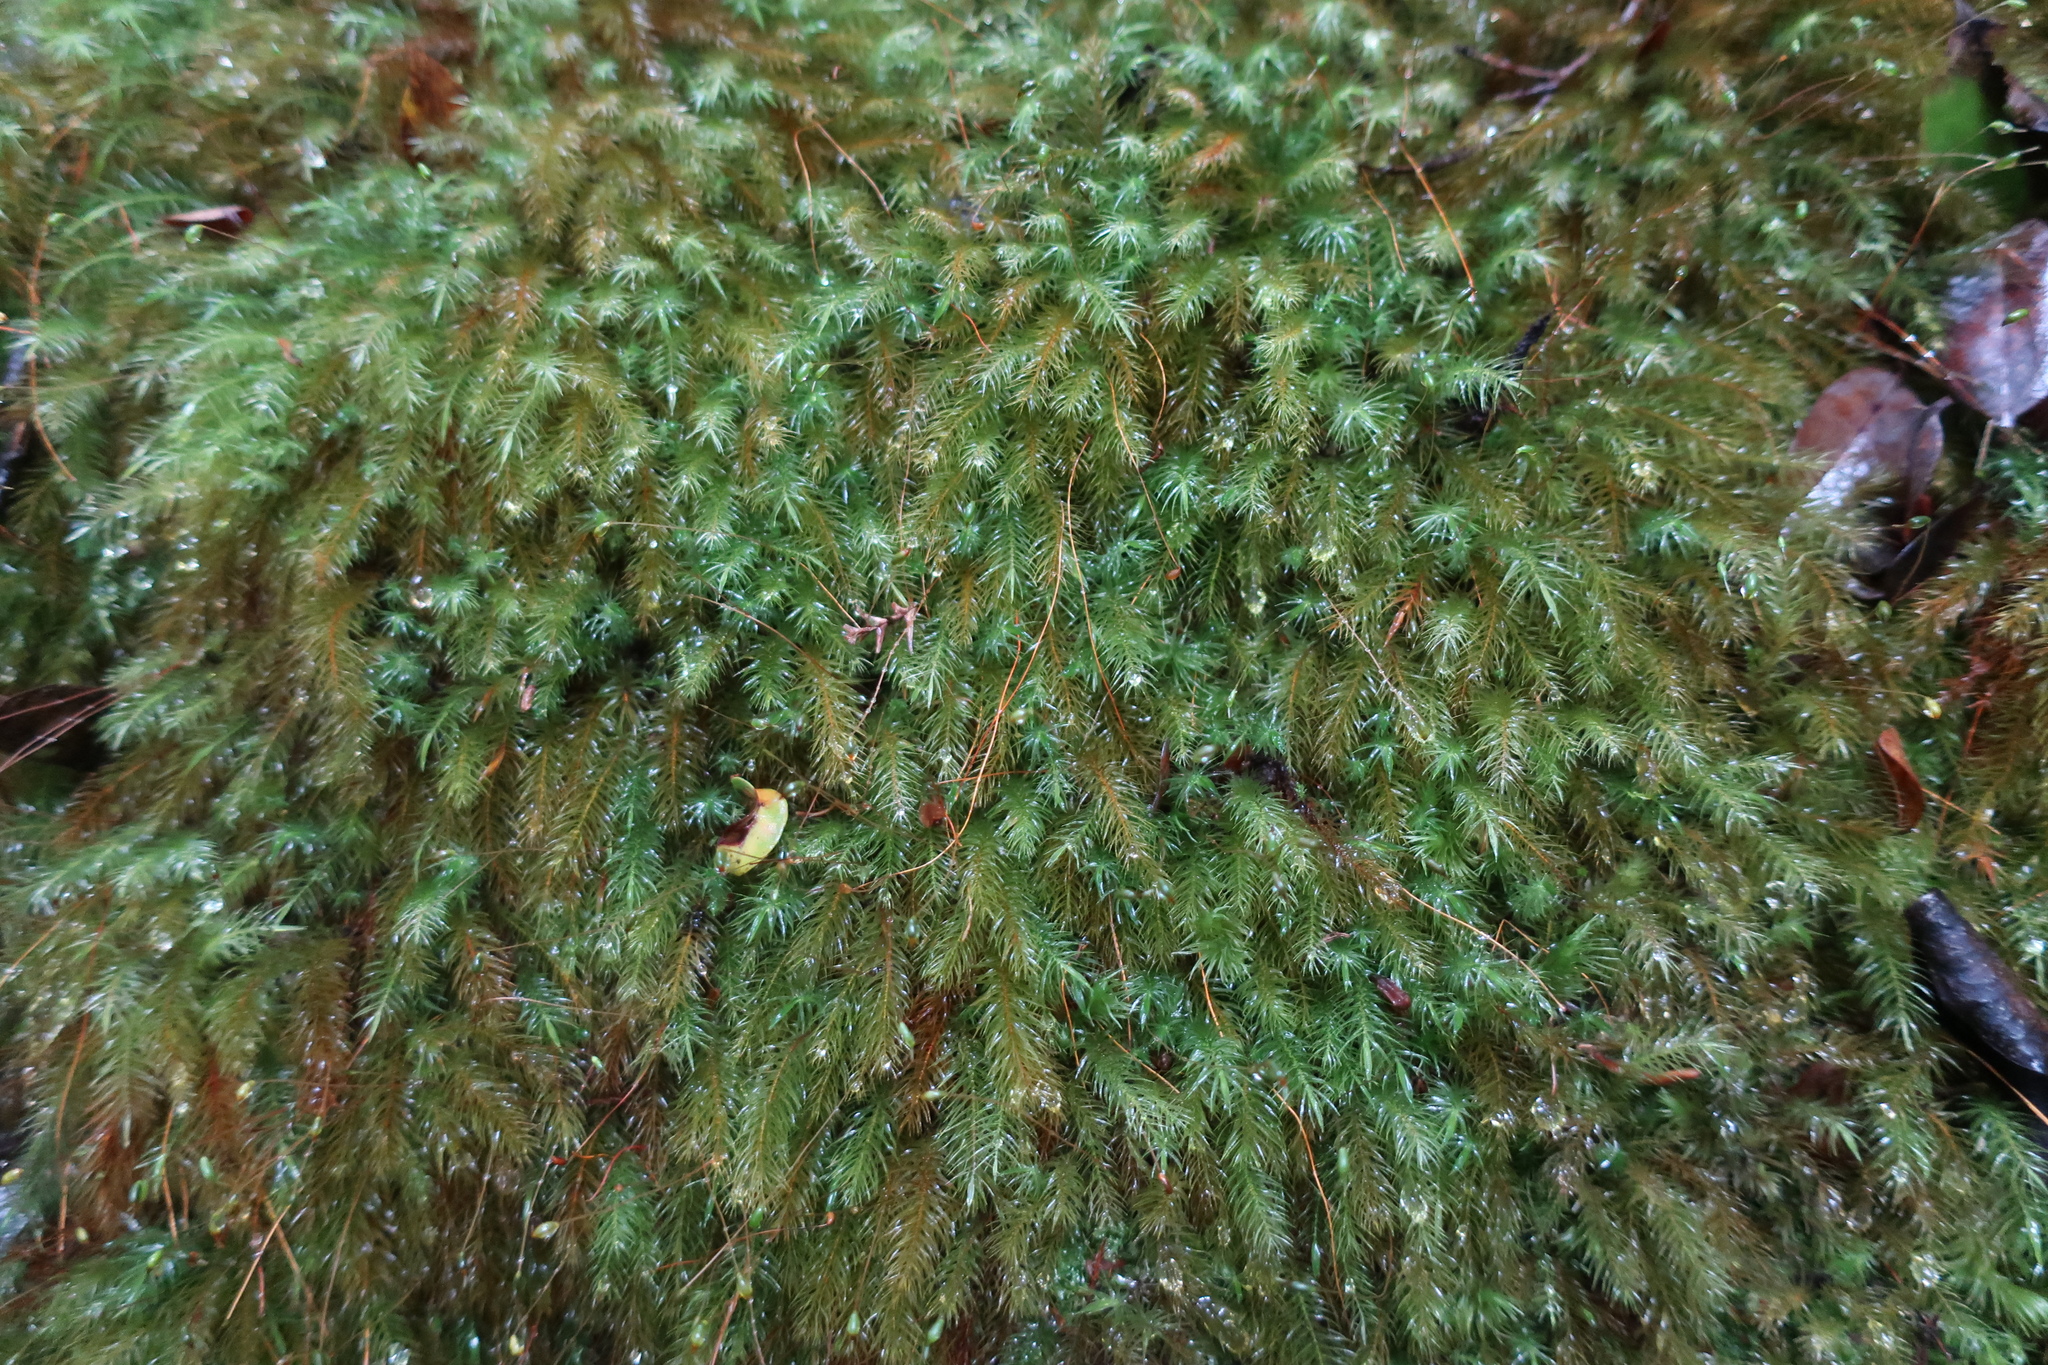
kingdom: Plantae
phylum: Bryophyta
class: Bryopsida
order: Rhizogoniales
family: Calomniaceae
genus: Pyrrhobryum
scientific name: Pyrrhobryum spiniforme
